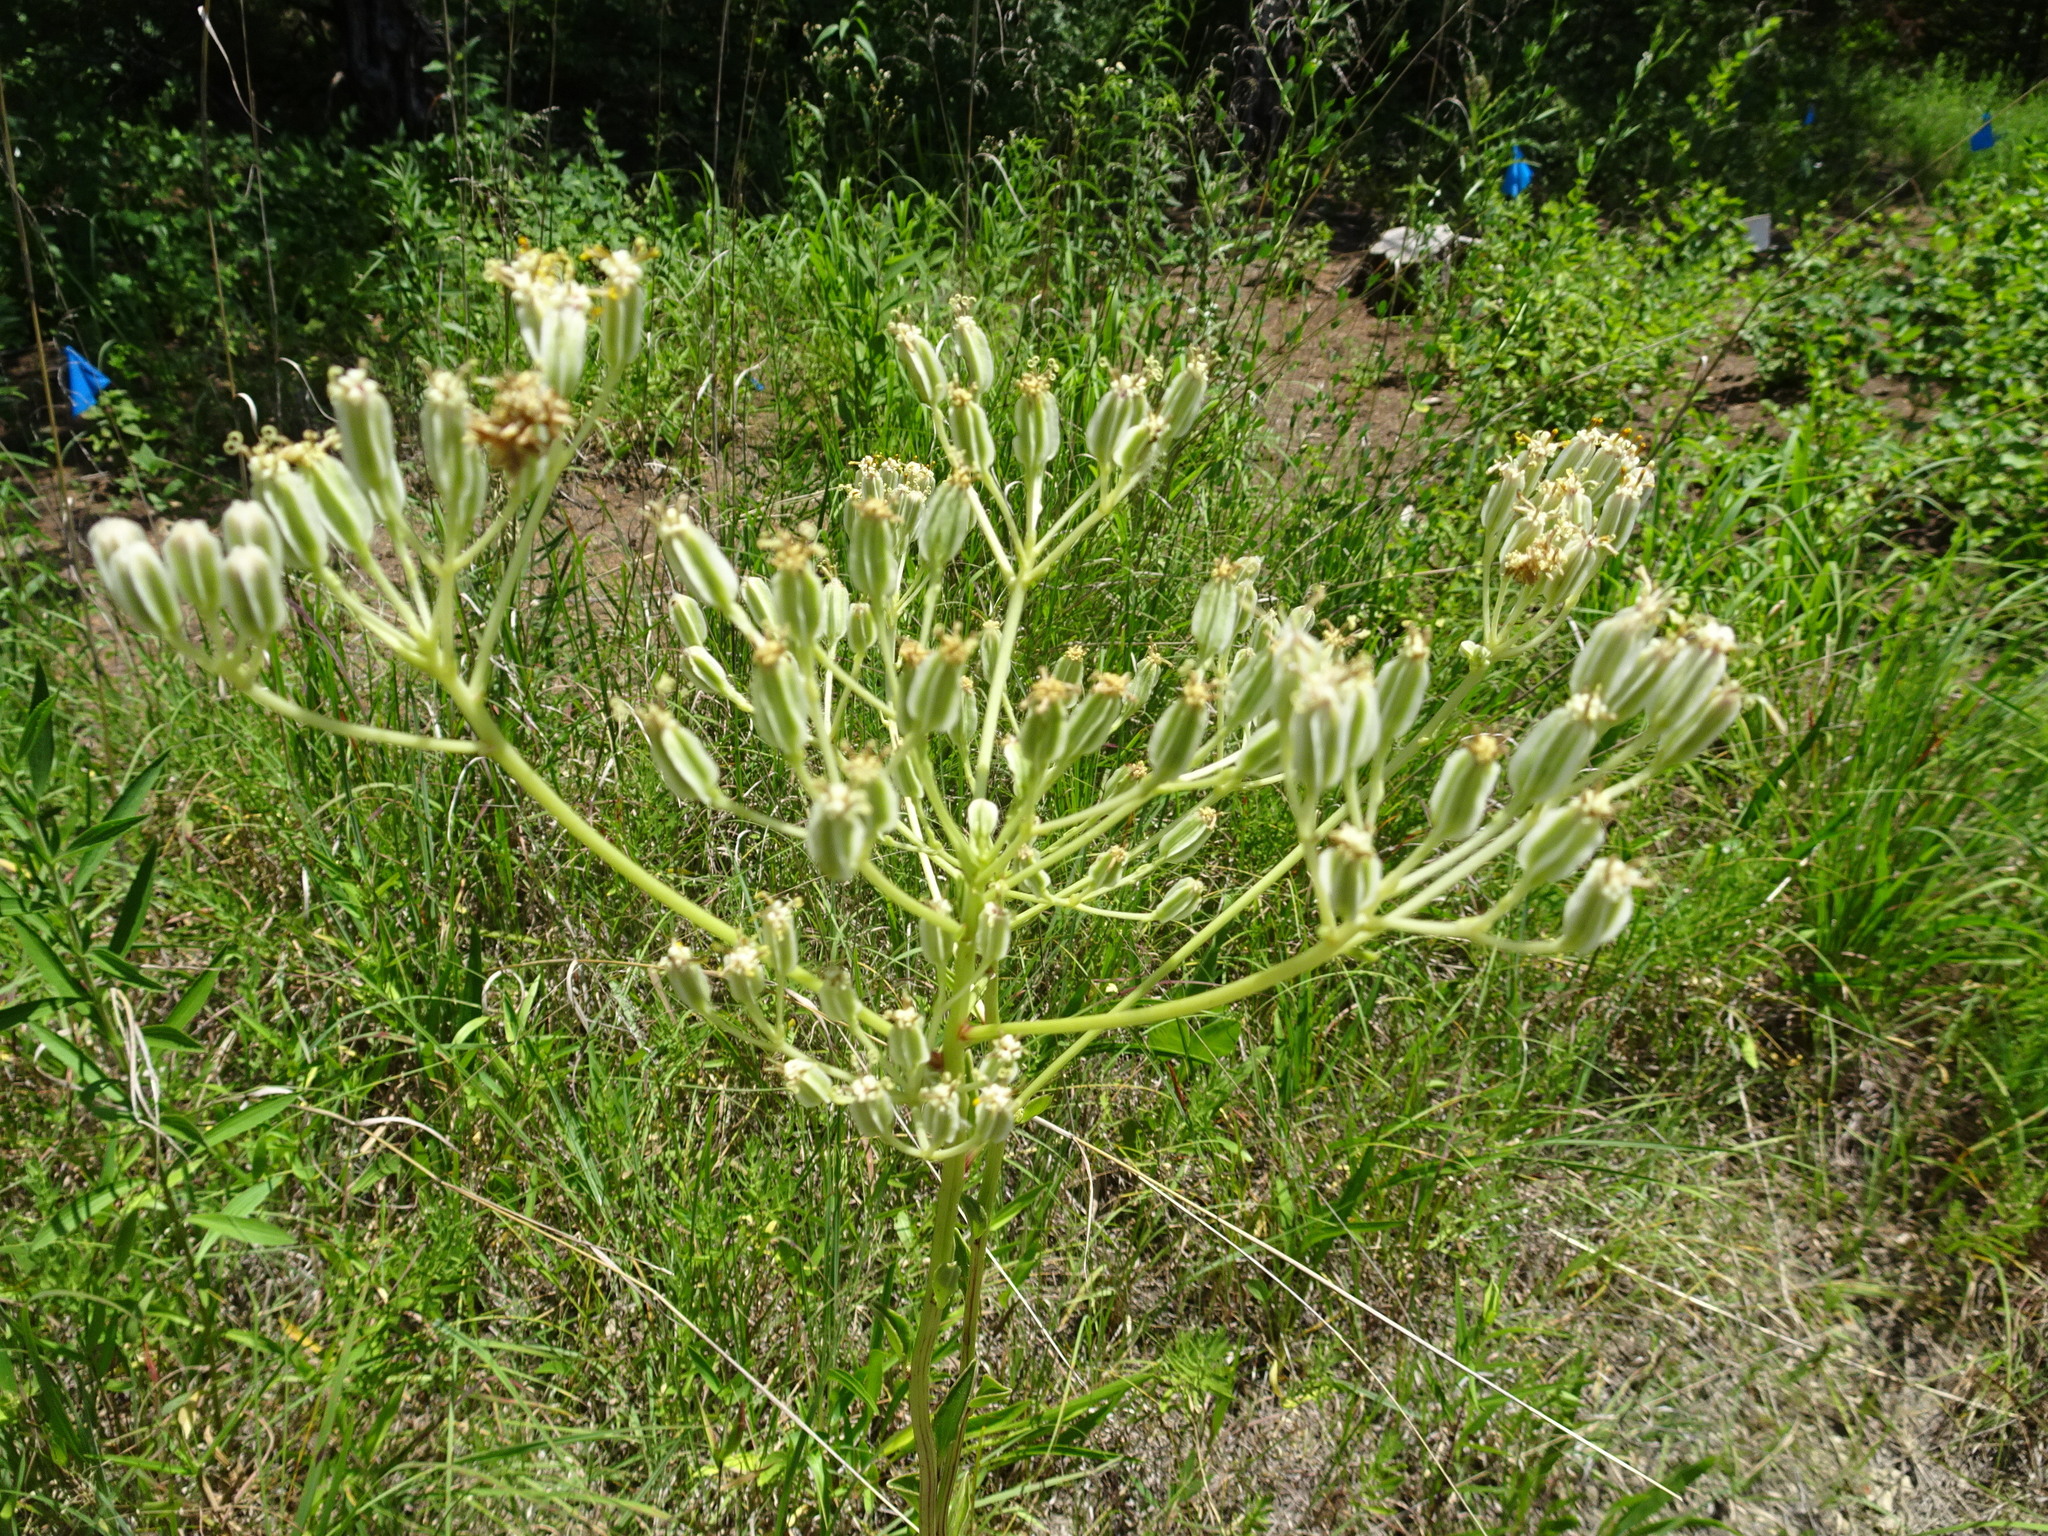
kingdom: Plantae
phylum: Tracheophyta
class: Magnoliopsida
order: Asterales
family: Asteraceae
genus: Arnoglossum
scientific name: Arnoglossum plantagineum
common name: Groove-stemmed indian-plantain
